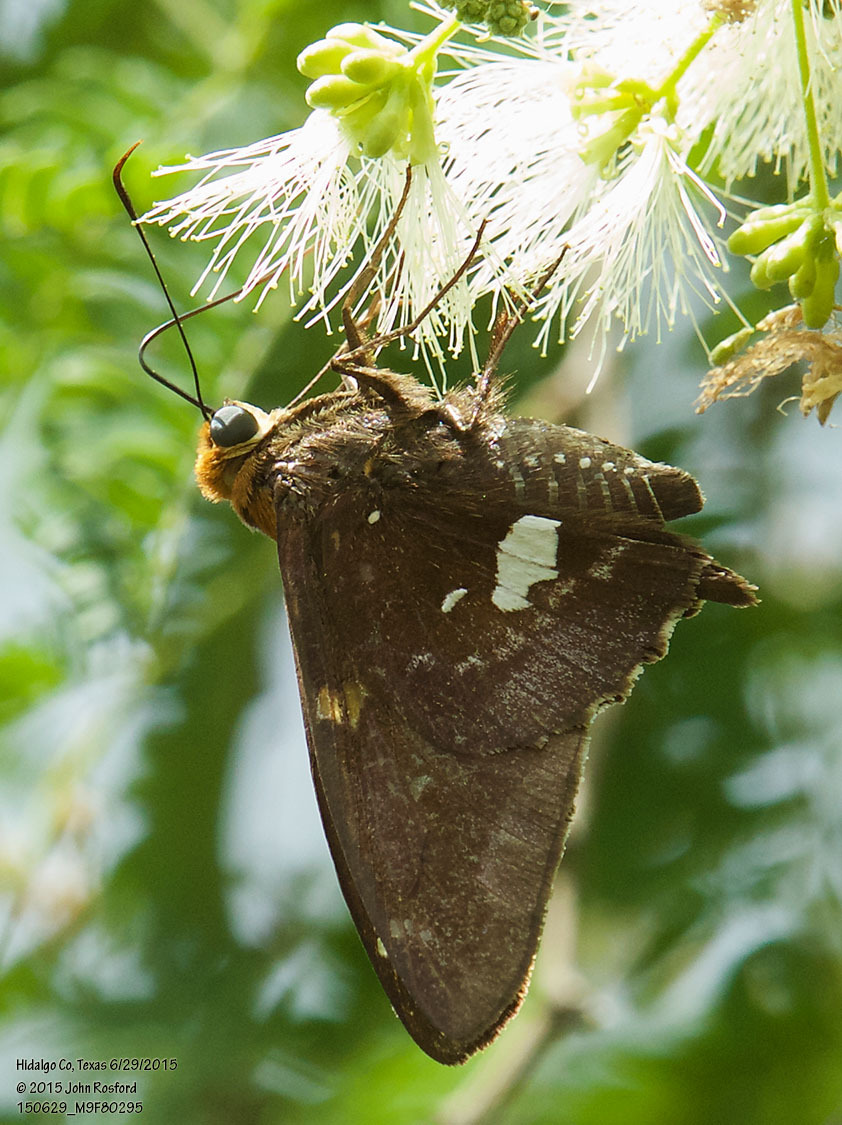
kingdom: Animalia
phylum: Arthropoda
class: Insecta
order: Lepidoptera
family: Hesperiidae
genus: Epargyreus
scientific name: Epargyreus exadeus
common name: Broken silverdrop
